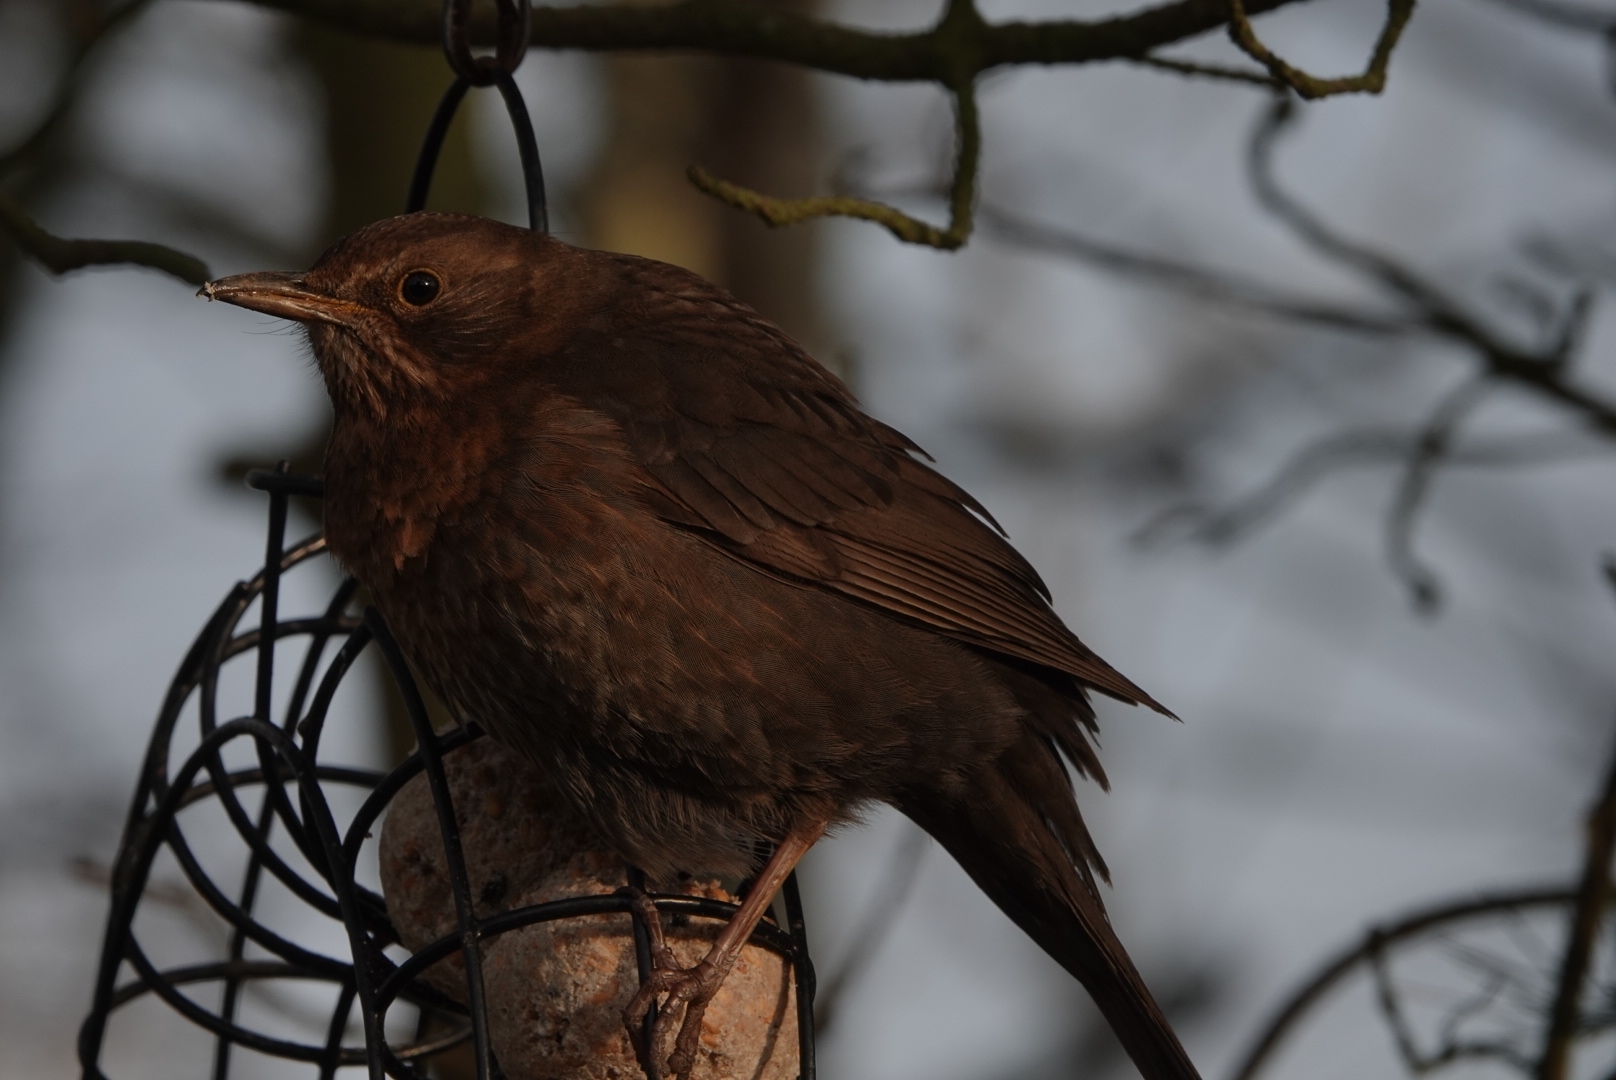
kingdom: Animalia
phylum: Chordata
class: Aves
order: Passeriformes
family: Turdidae
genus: Turdus
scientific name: Turdus merula
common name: Common blackbird
